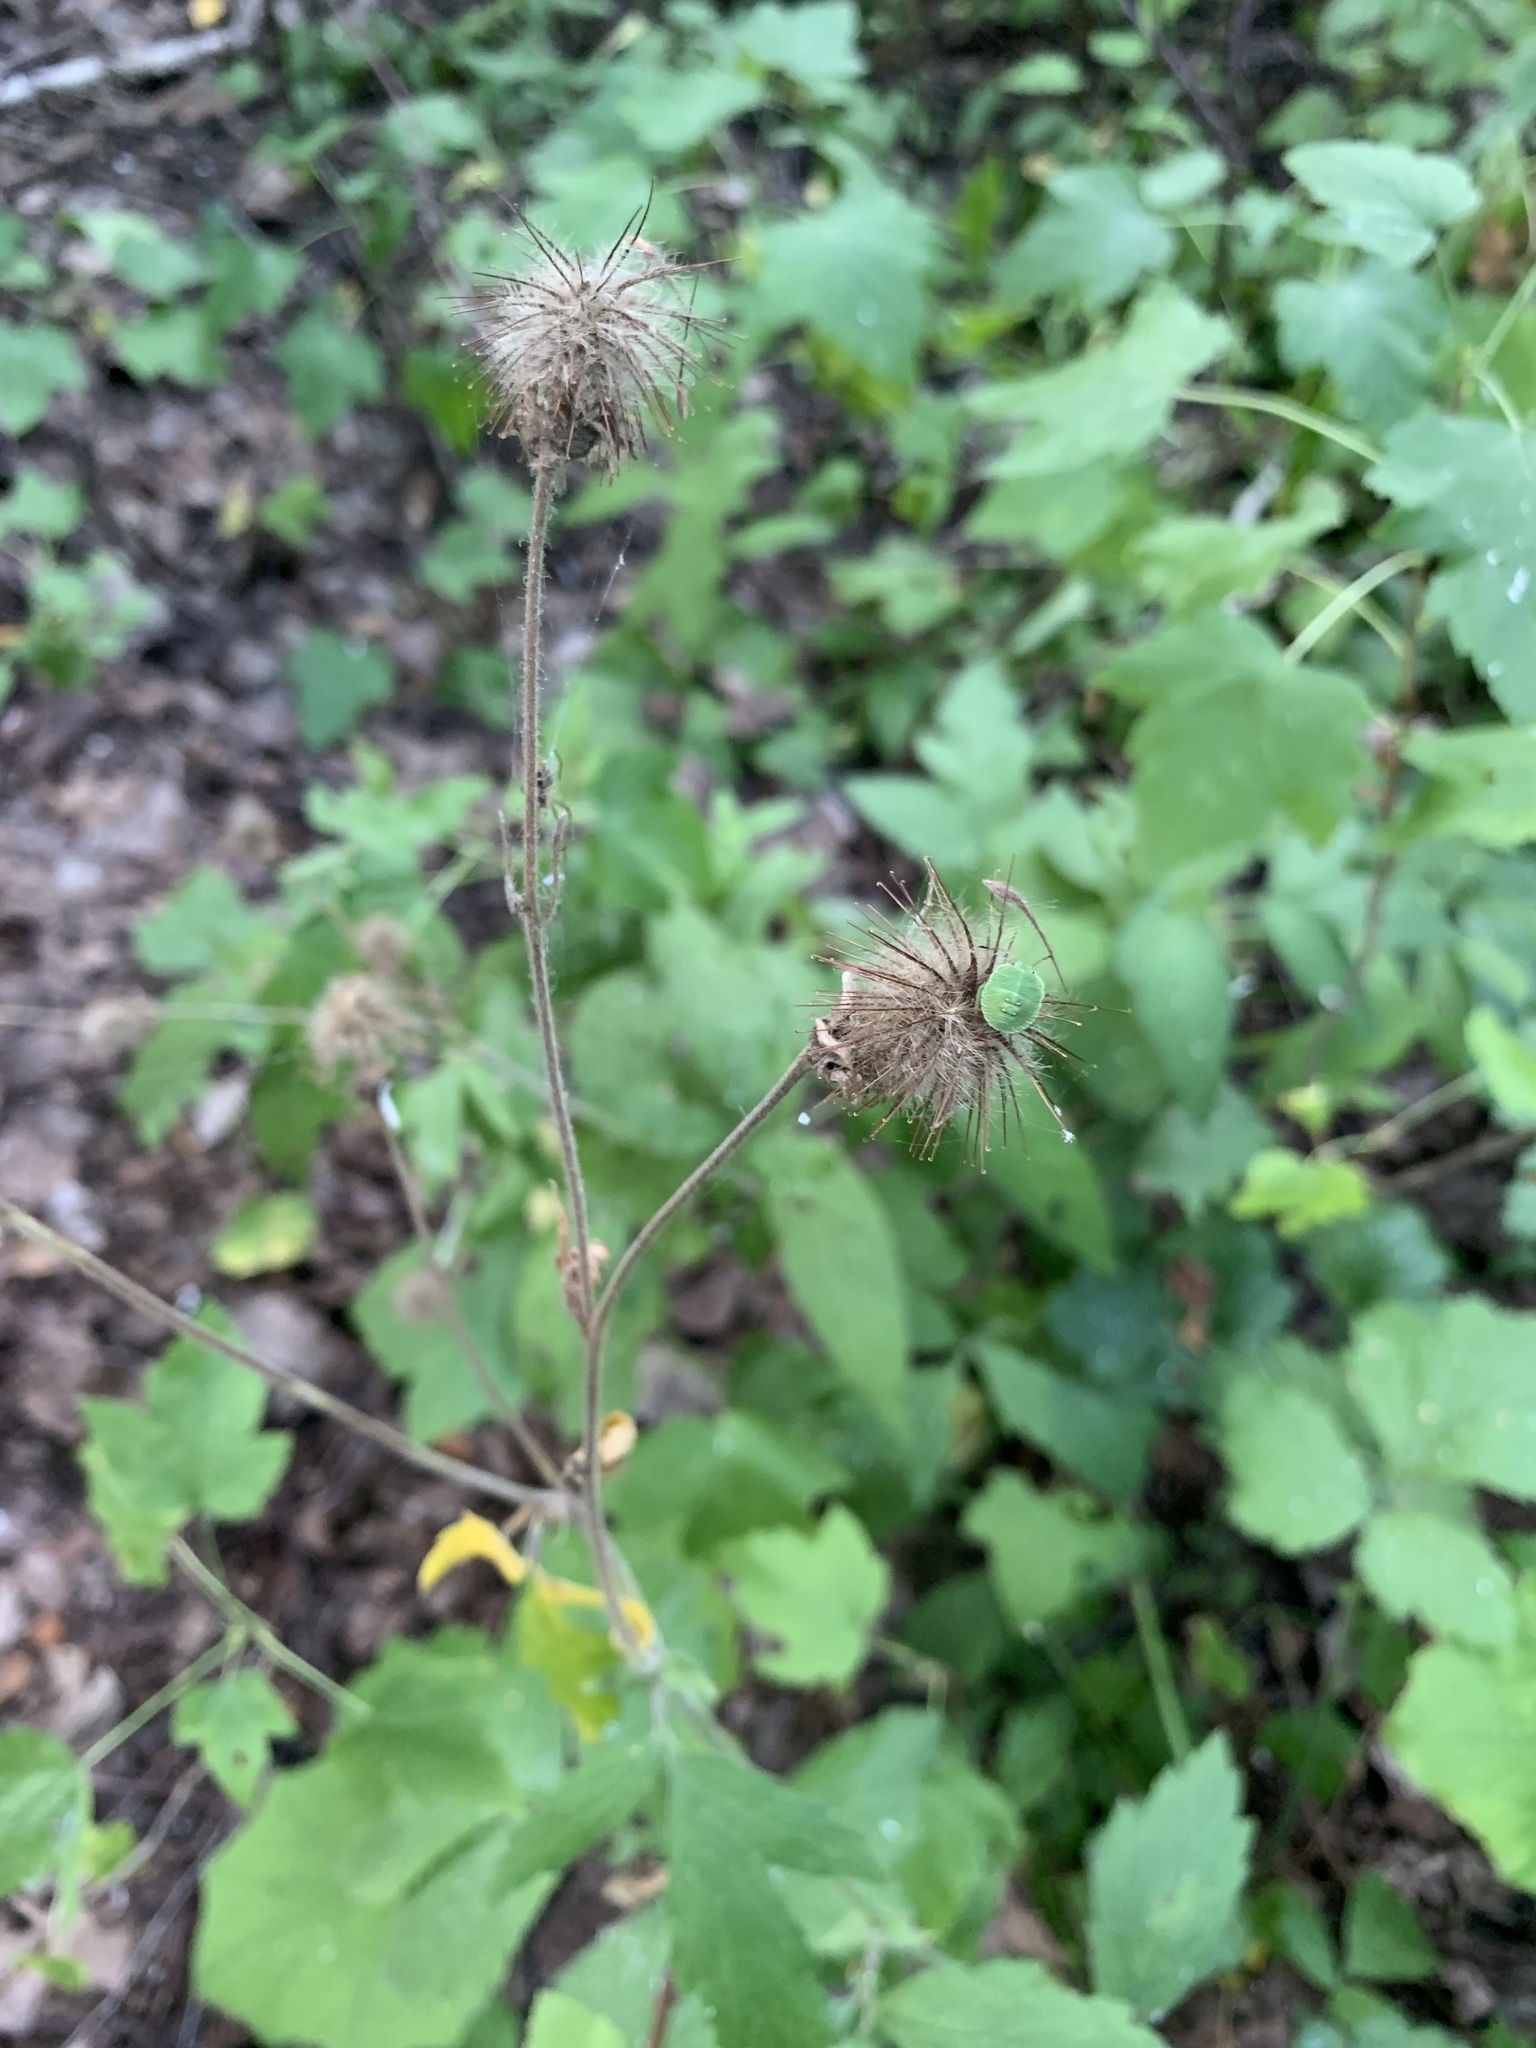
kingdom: Plantae
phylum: Tracheophyta
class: Magnoliopsida
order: Rosales
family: Rosaceae
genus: Geum
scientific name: Geum rivale
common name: Water avens
